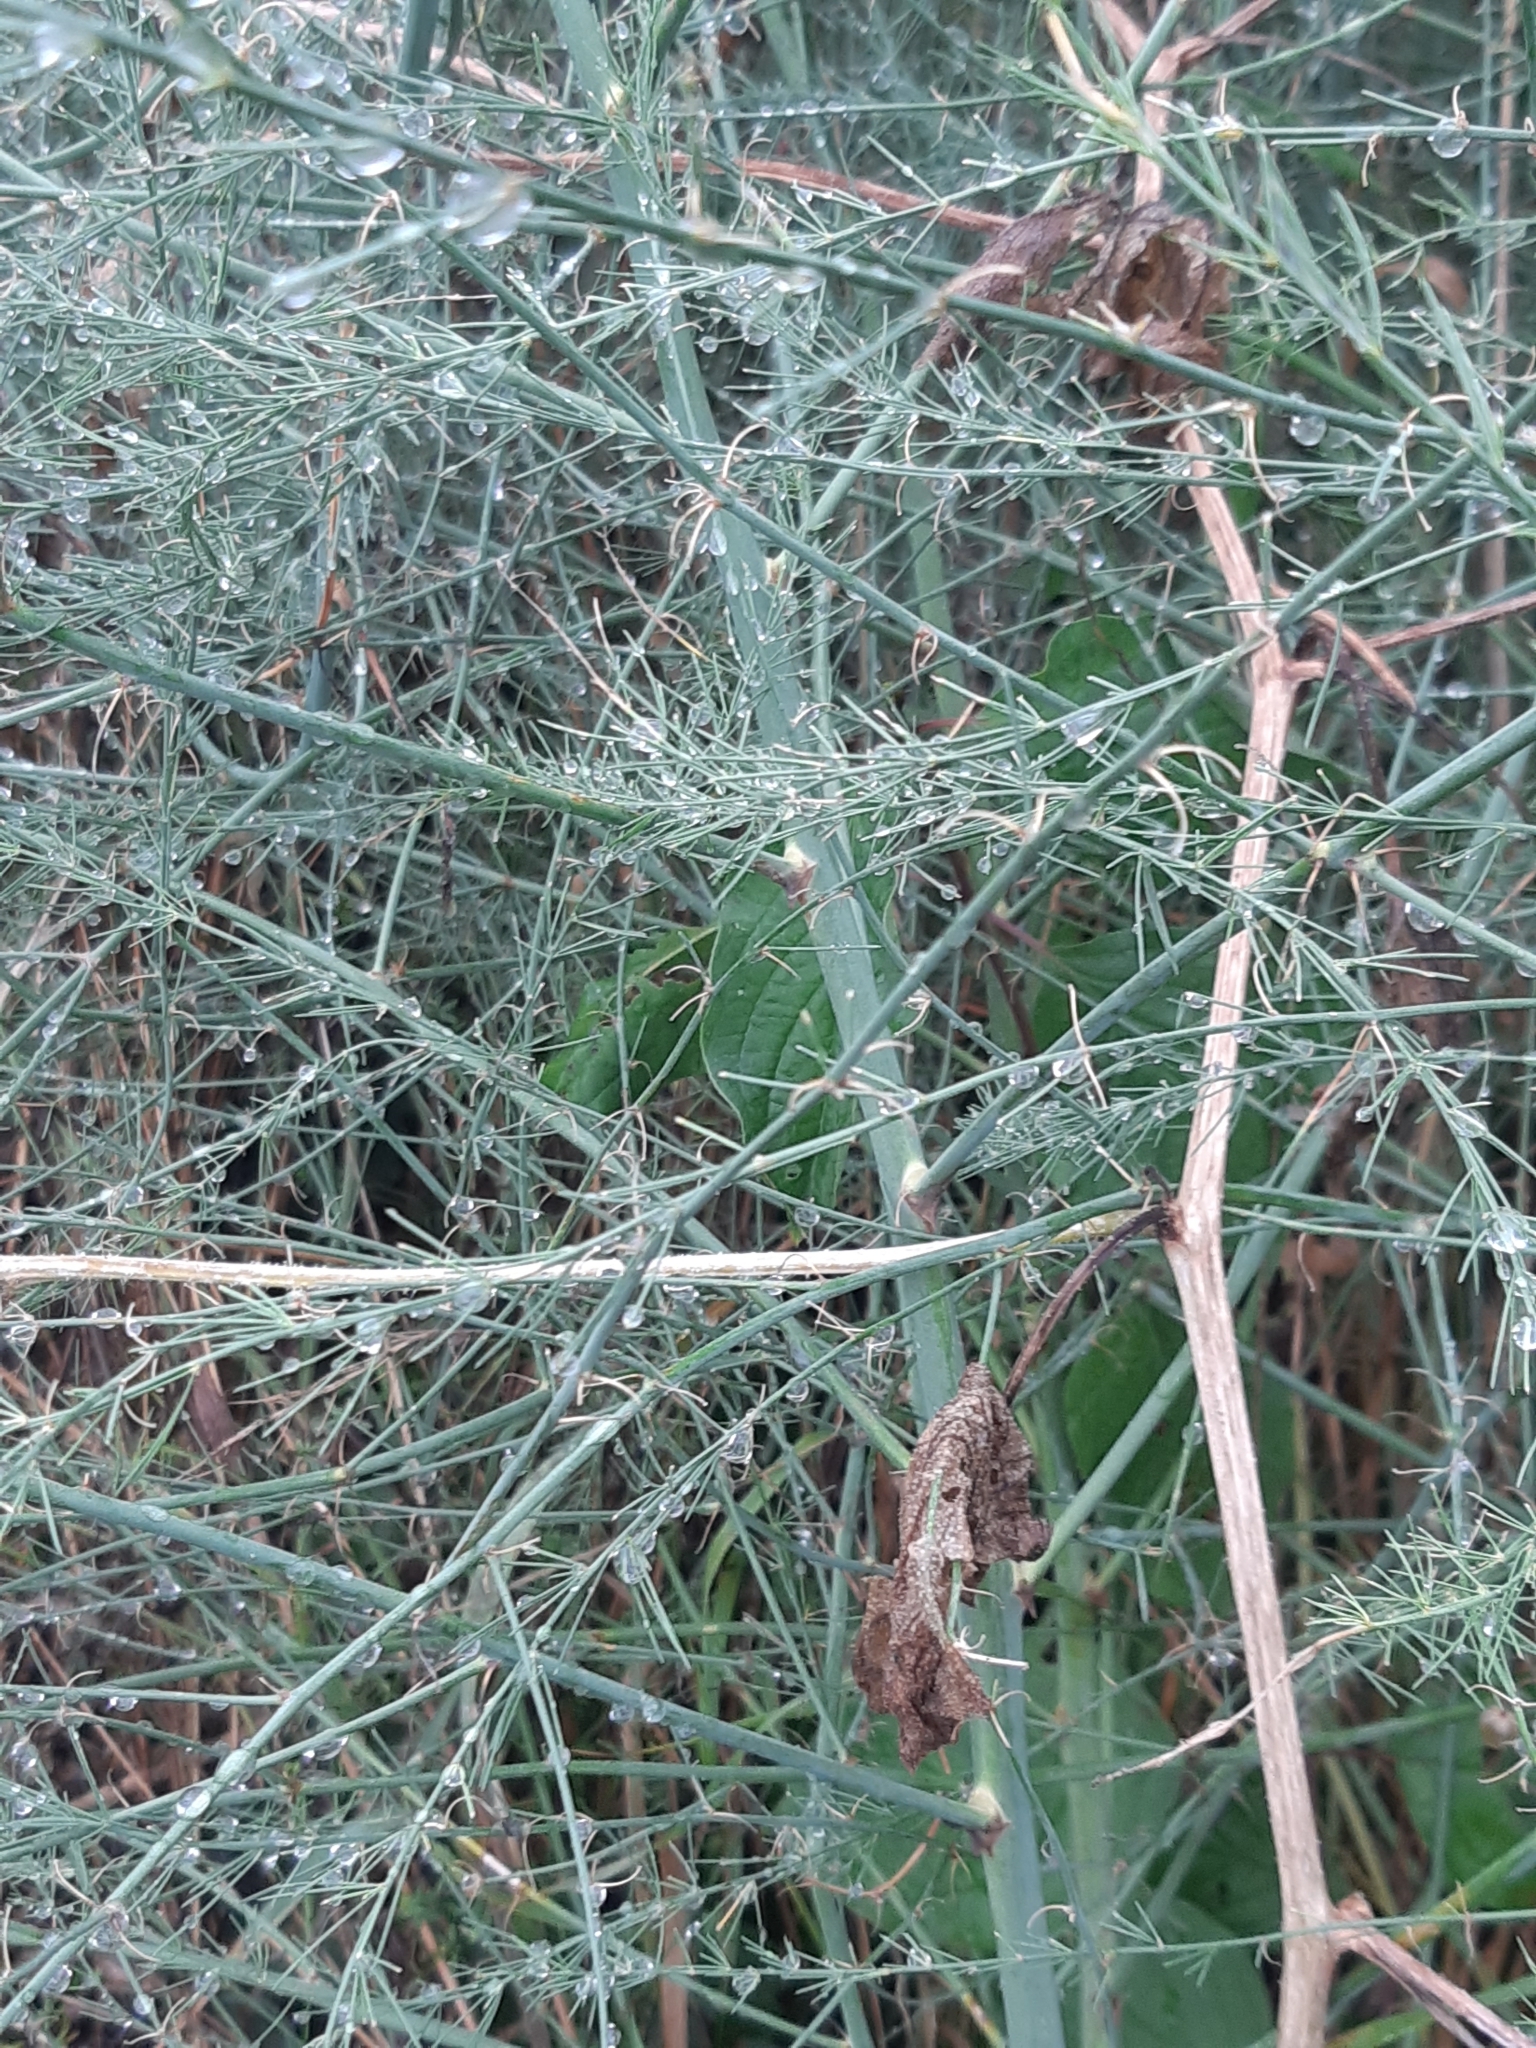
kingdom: Plantae
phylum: Tracheophyta
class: Liliopsida
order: Asparagales
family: Asparagaceae
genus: Asparagus
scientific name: Asparagus officinalis
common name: Garden asparagus
